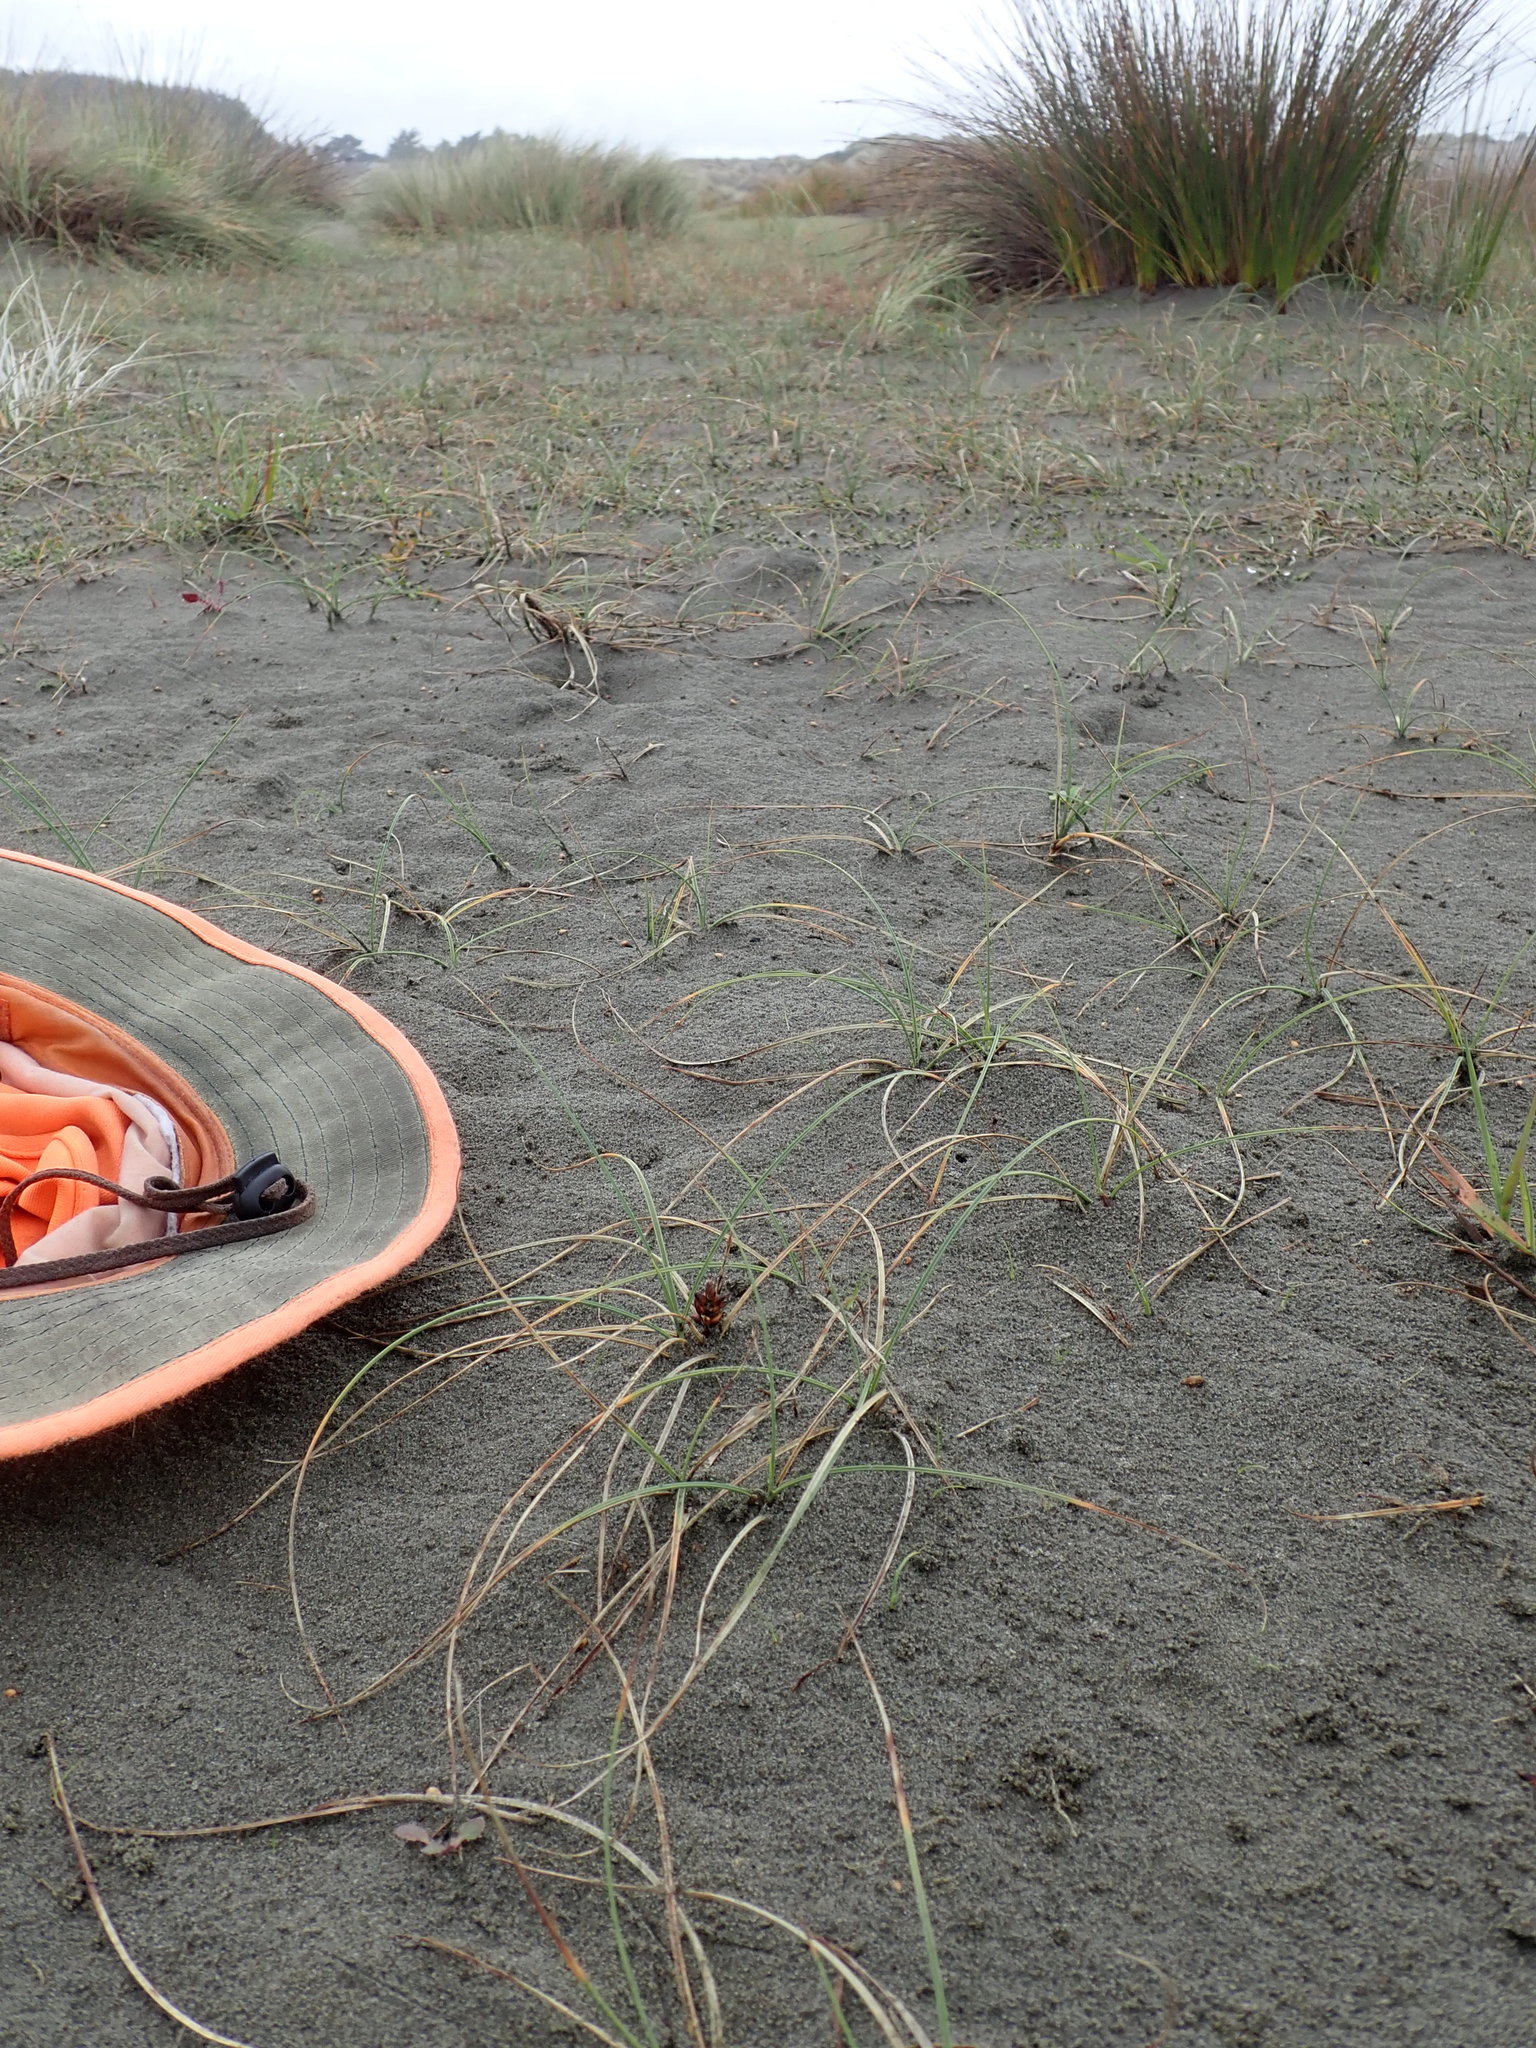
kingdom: Plantae
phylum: Tracheophyta
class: Liliopsida
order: Poales
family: Cyperaceae
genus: Carex
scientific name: Carex pumila
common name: Dwarf sedge
